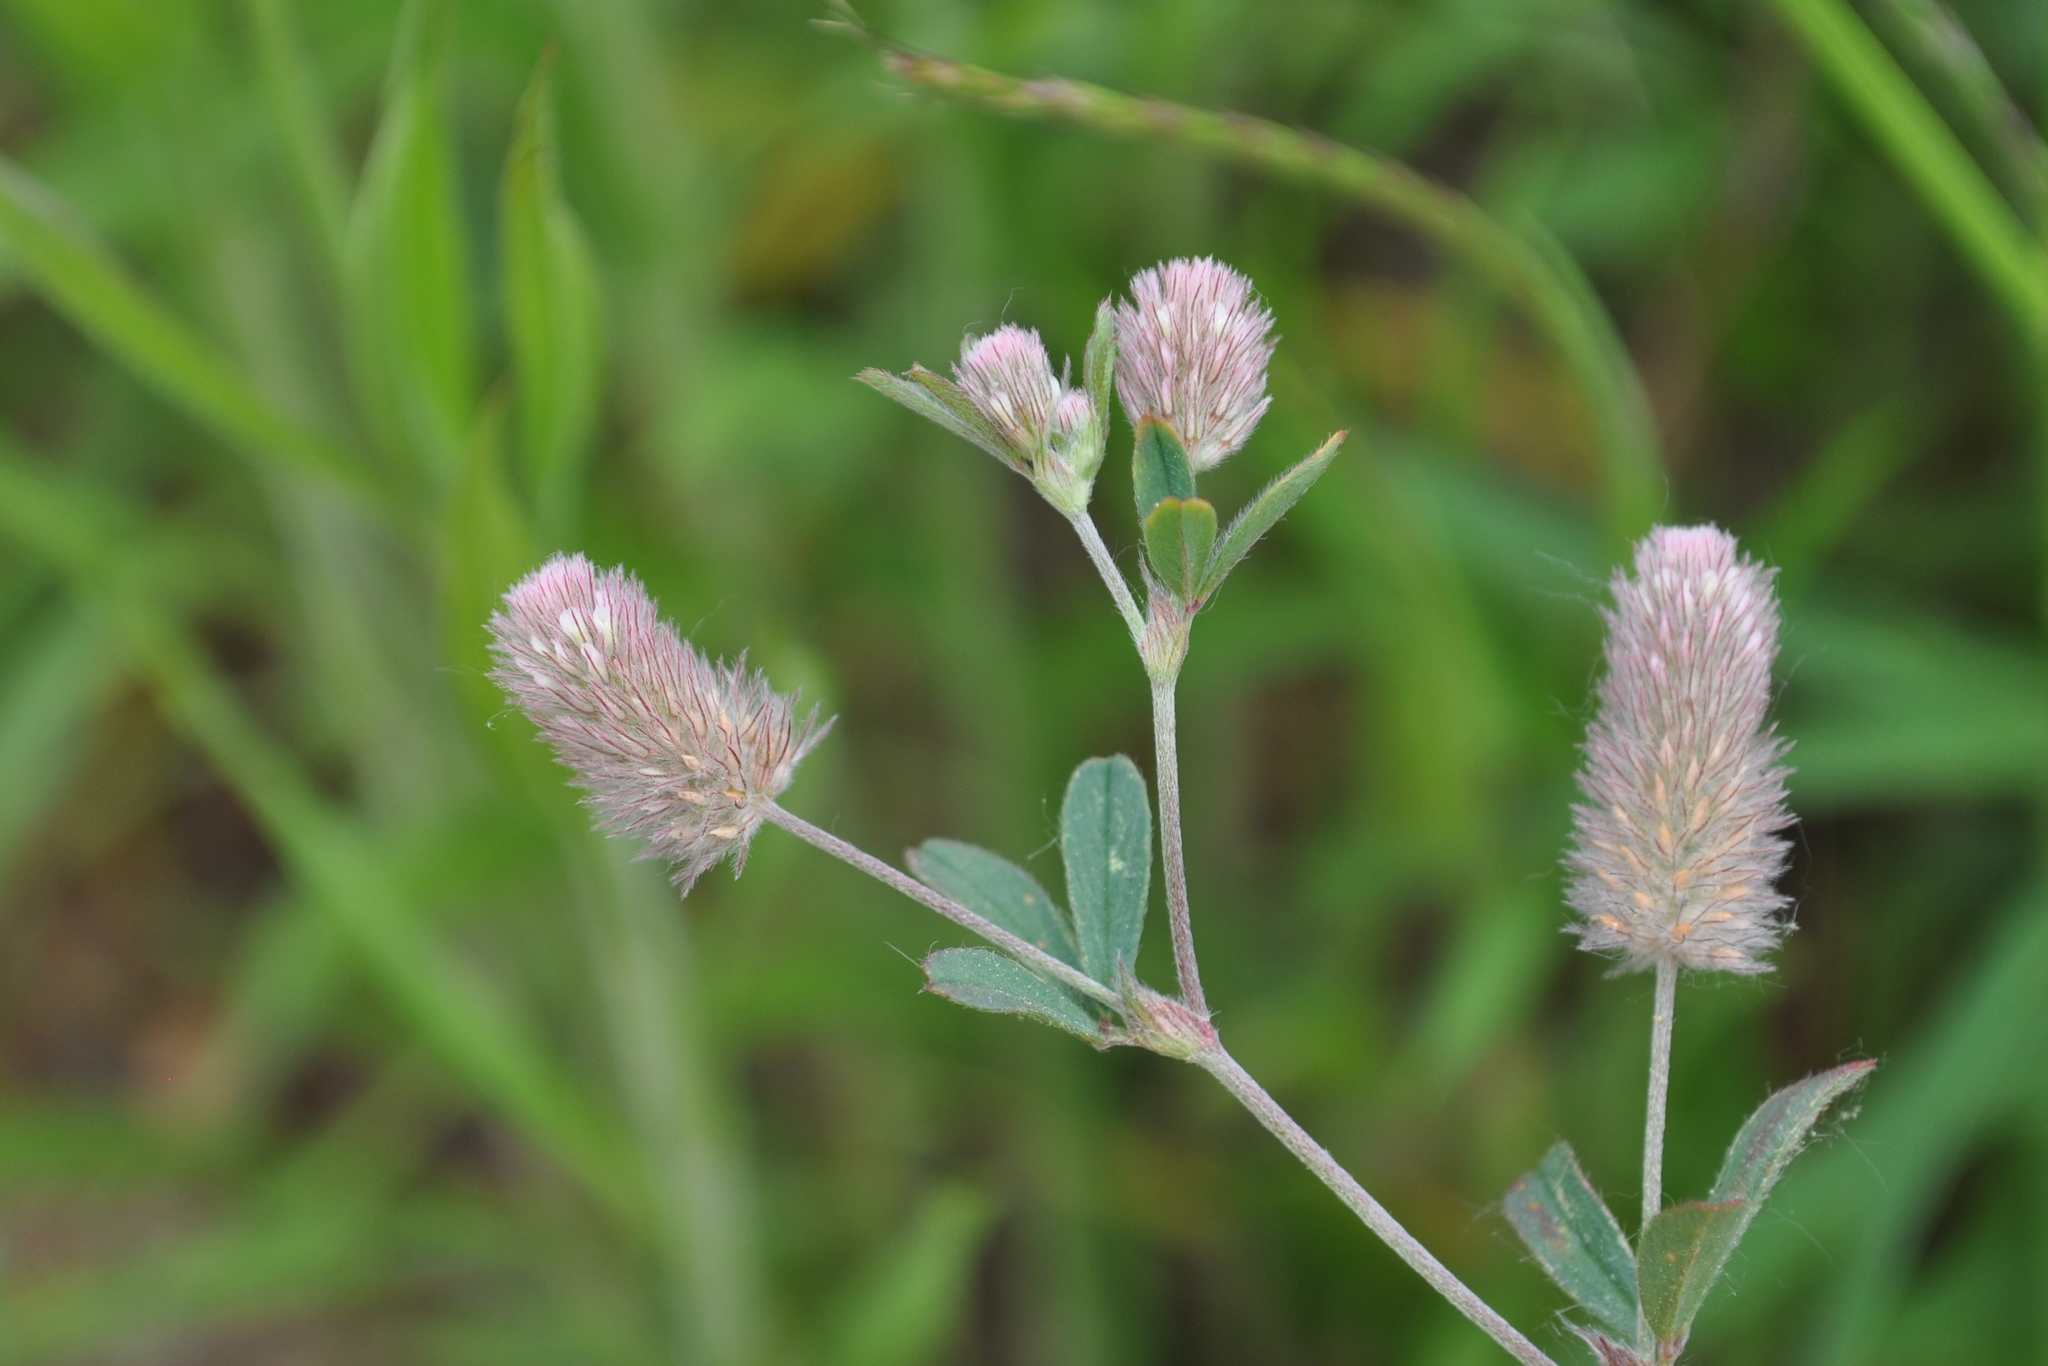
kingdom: Plantae
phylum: Tracheophyta
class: Magnoliopsida
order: Fabales
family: Fabaceae
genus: Trifolium
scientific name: Trifolium arvense
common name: Hare's-foot clover
